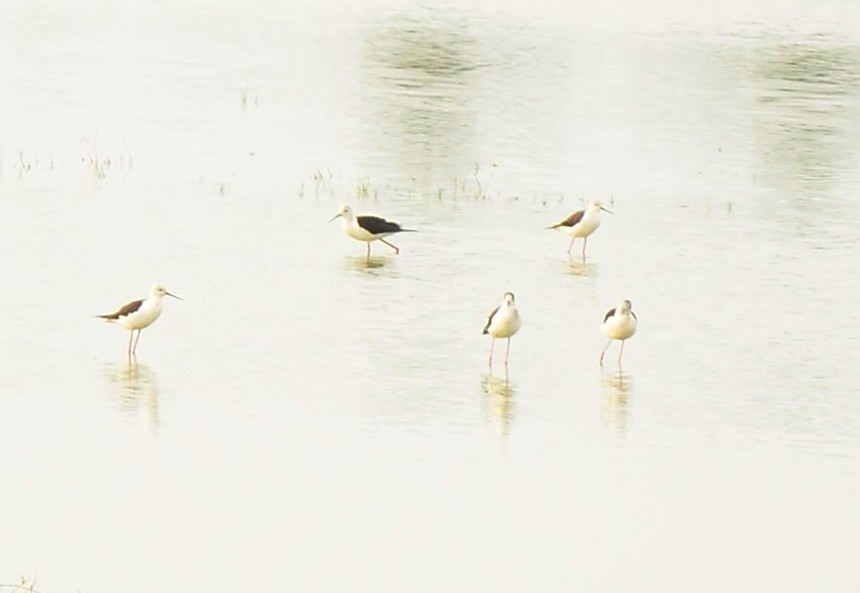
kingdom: Animalia
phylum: Chordata
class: Aves
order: Charadriiformes
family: Recurvirostridae
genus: Himantopus
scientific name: Himantopus himantopus
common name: Black-winged stilt
